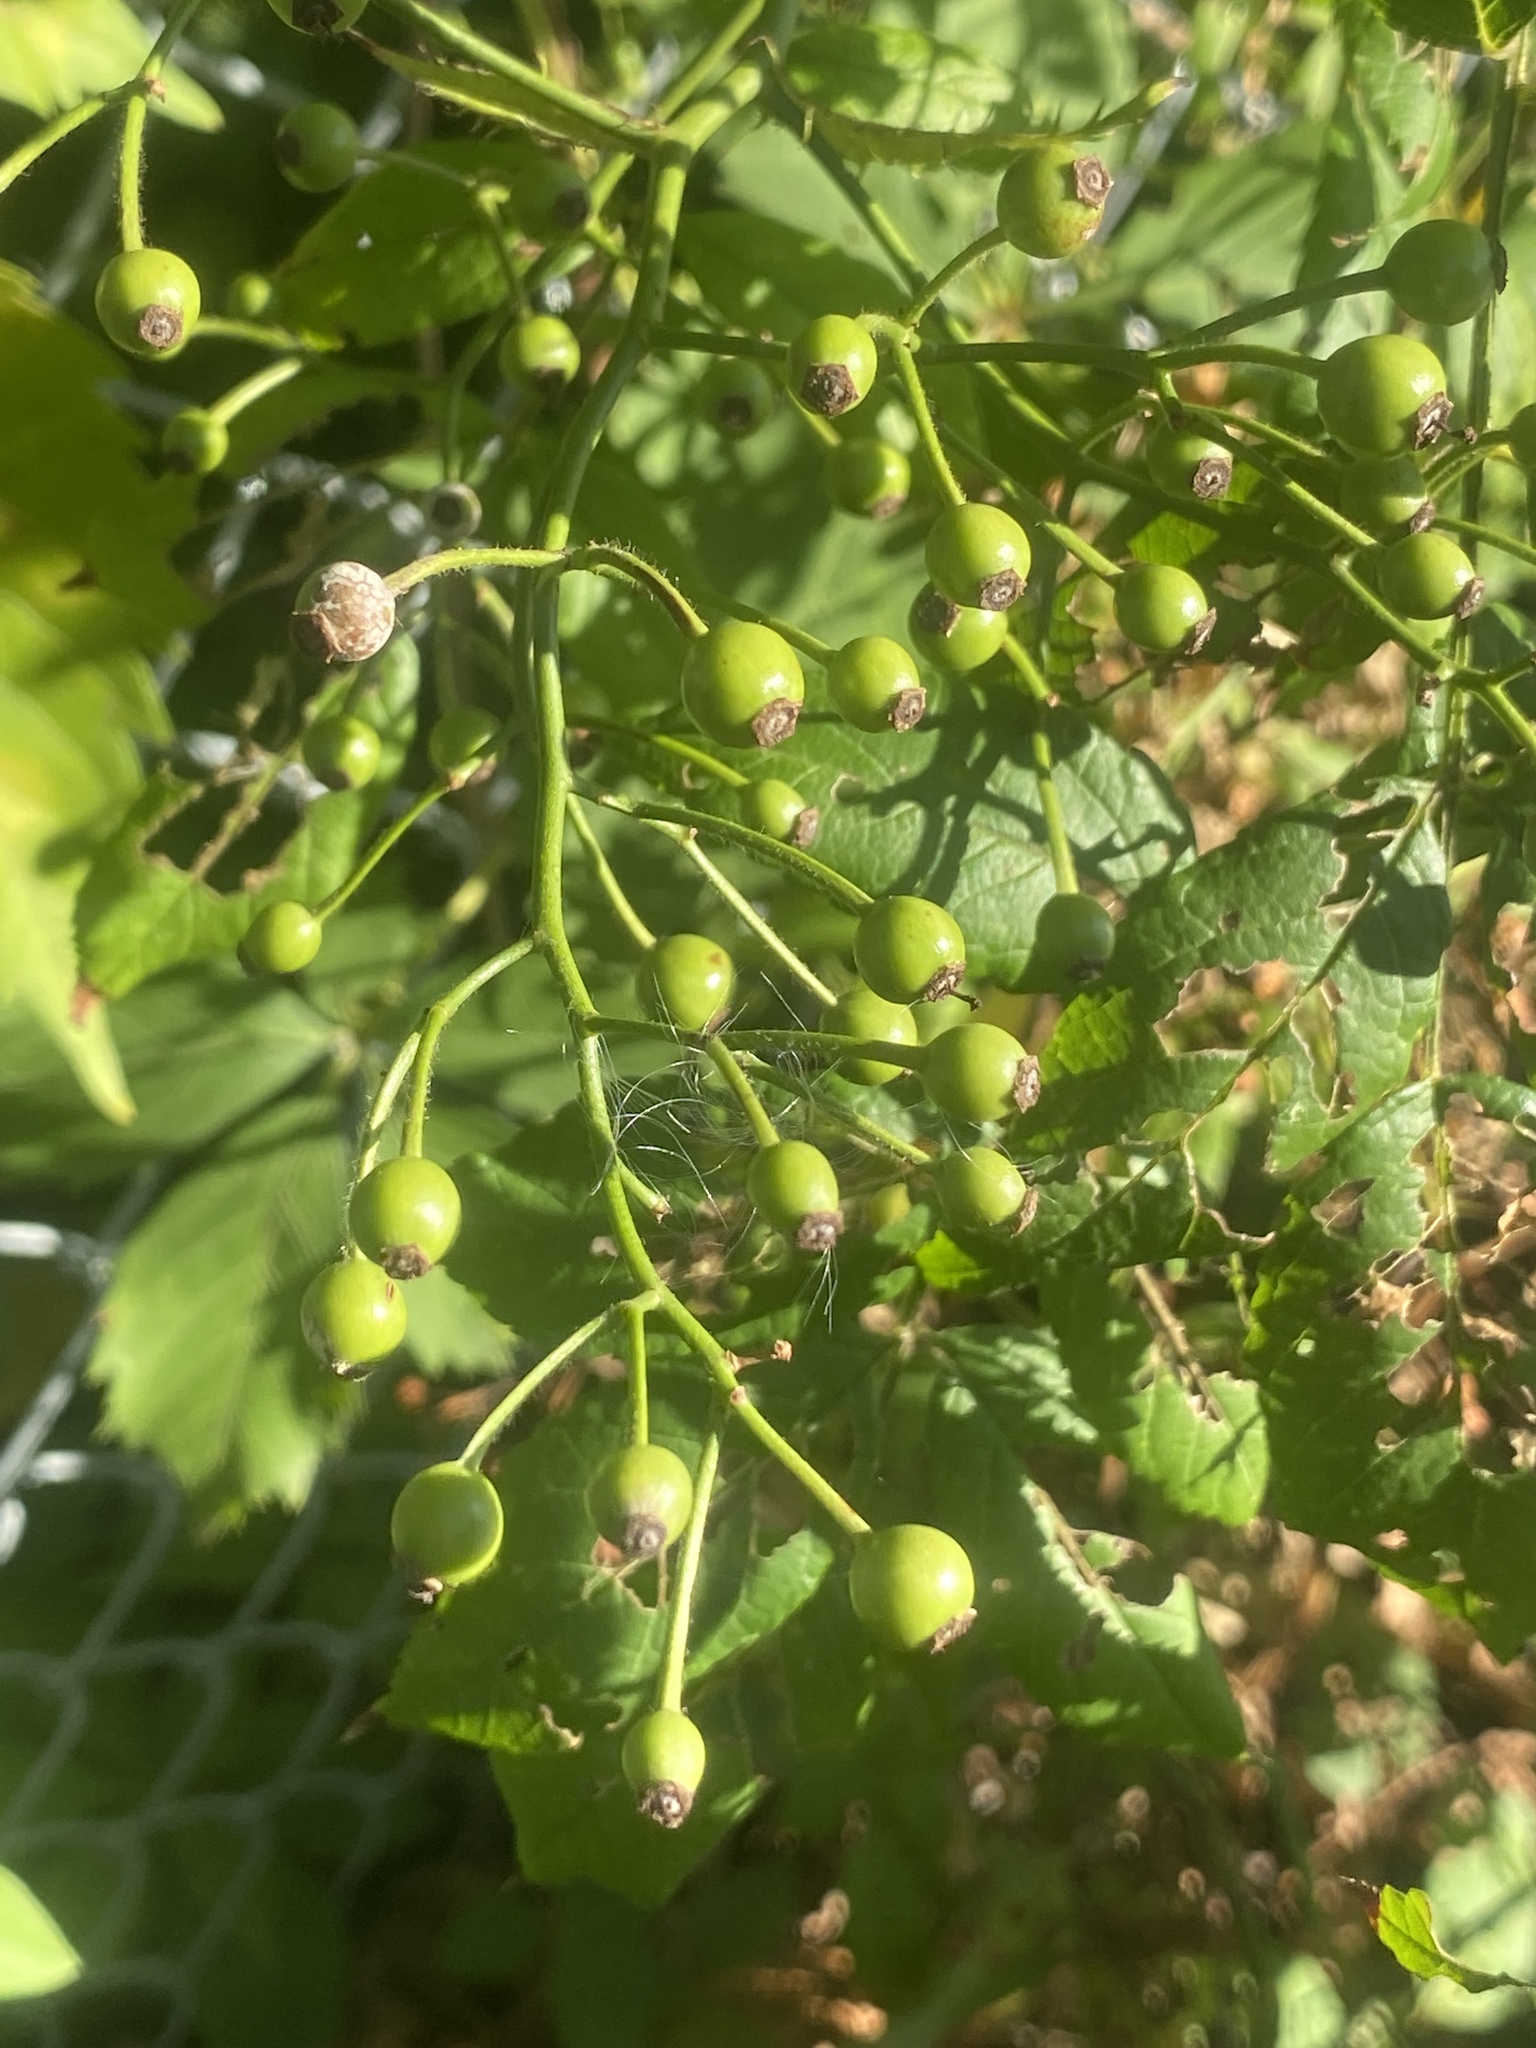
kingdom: Plantae
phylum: Tracheophyta
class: Magnoliopsida
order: Rosales
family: Rosaceae
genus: Rosa
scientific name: Rosa multiflora
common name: Multiflora rose
